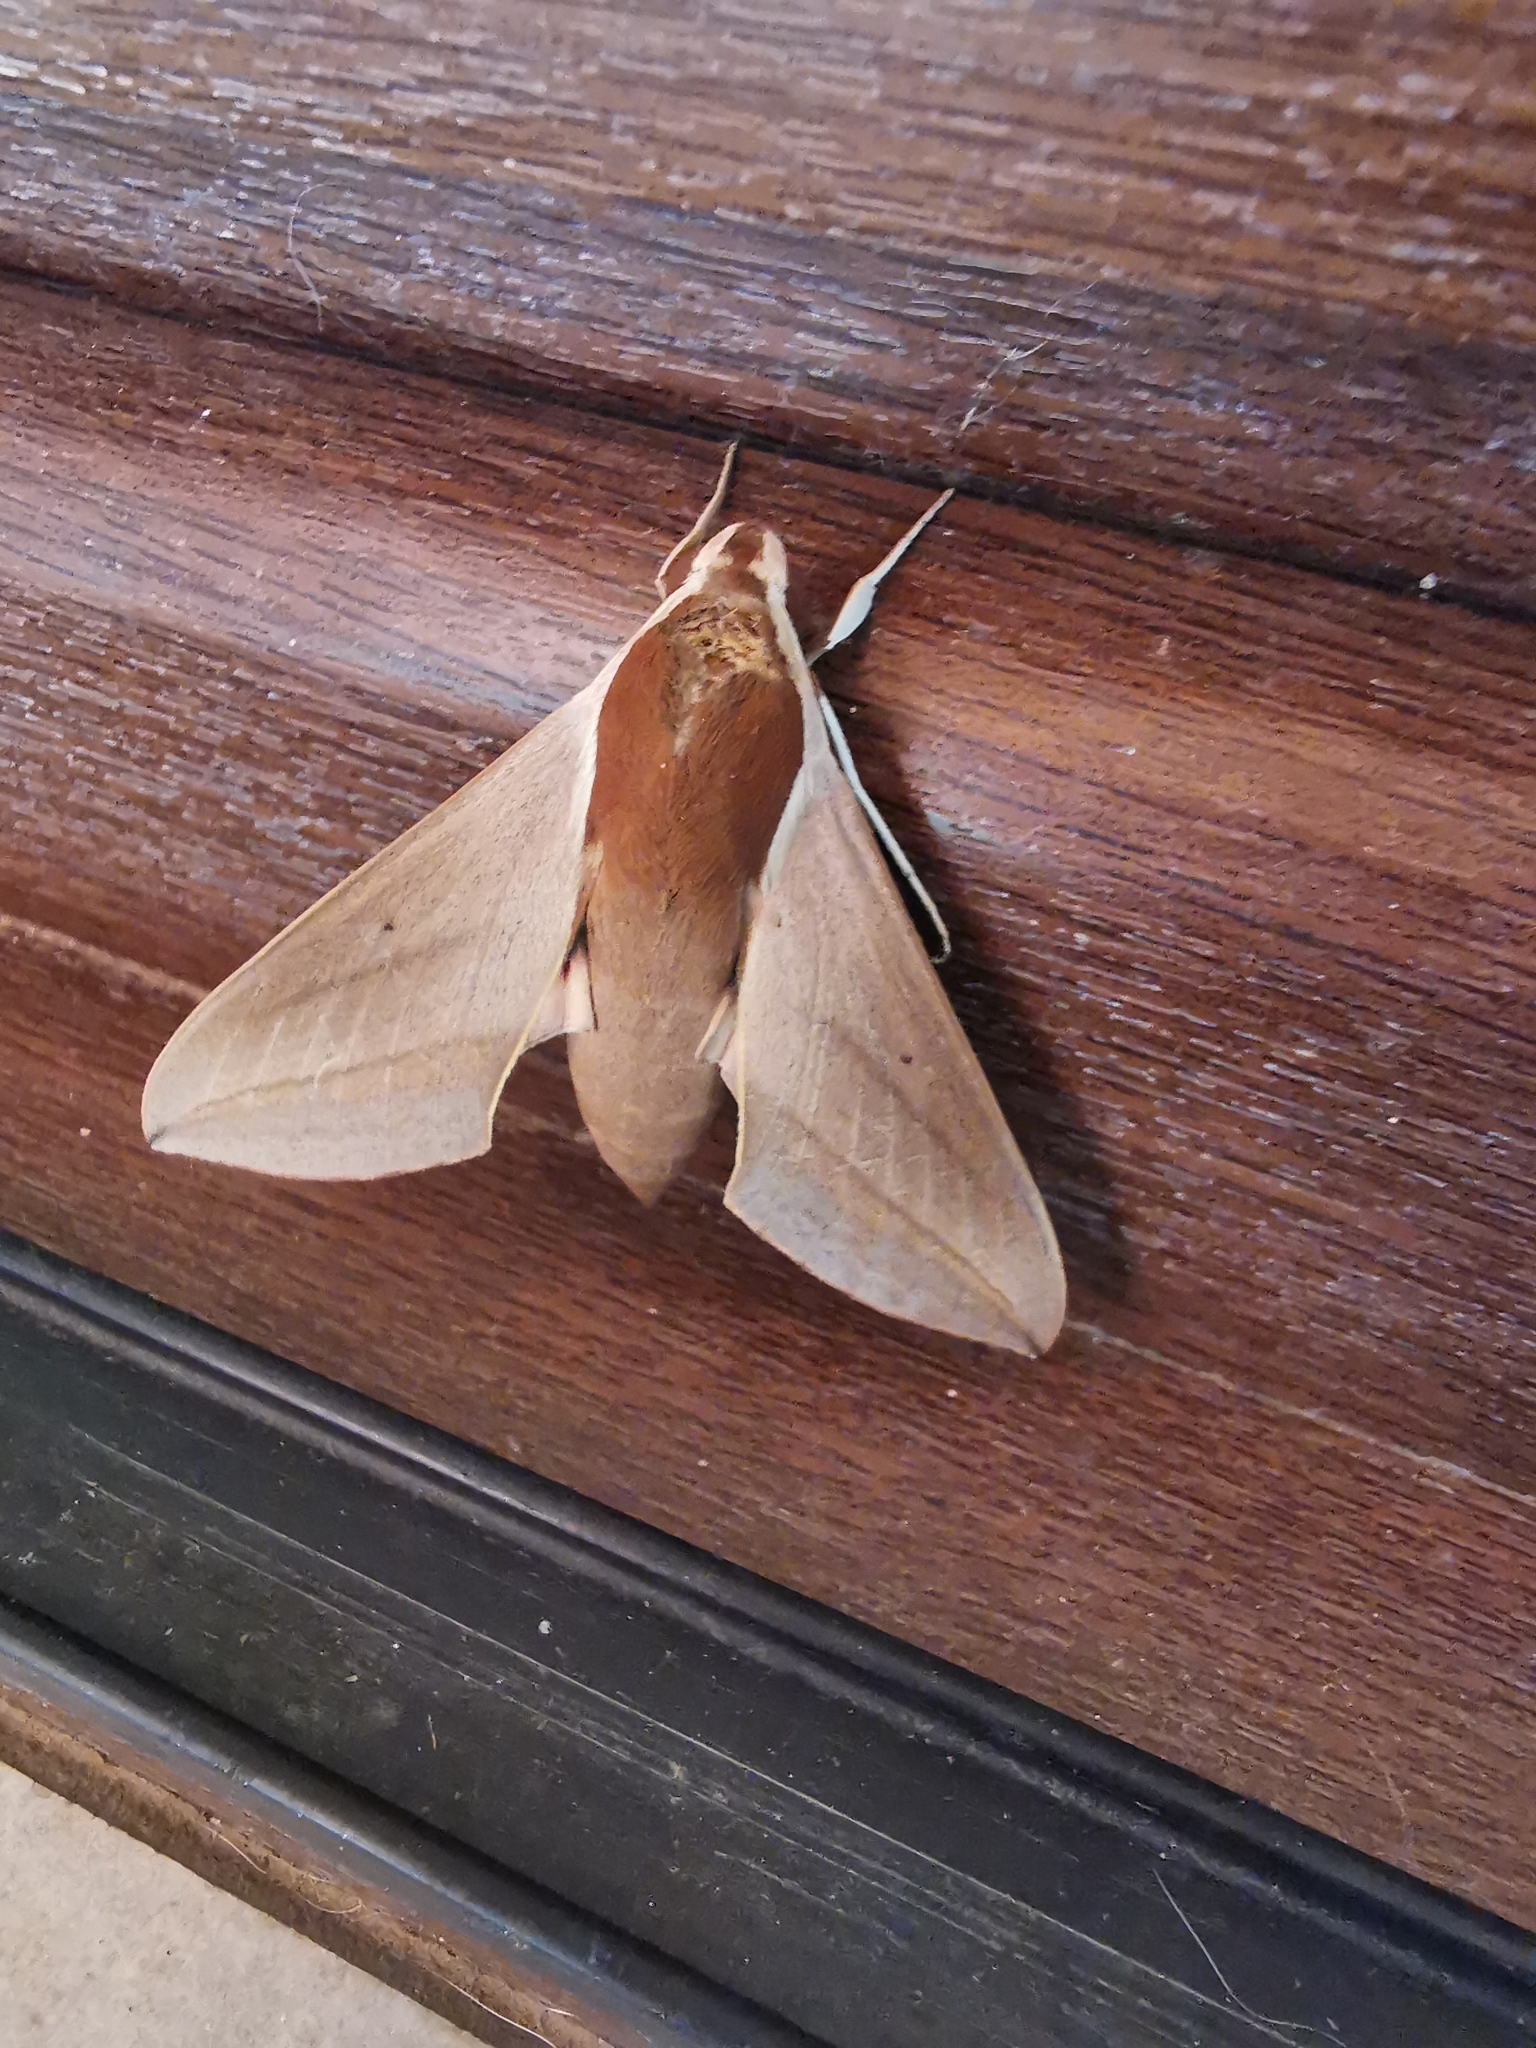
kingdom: Animalia
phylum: Arthropoda
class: Insecta
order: Lepidoptera
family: Sphingidae
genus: Theretra
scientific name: Theretra alecto
